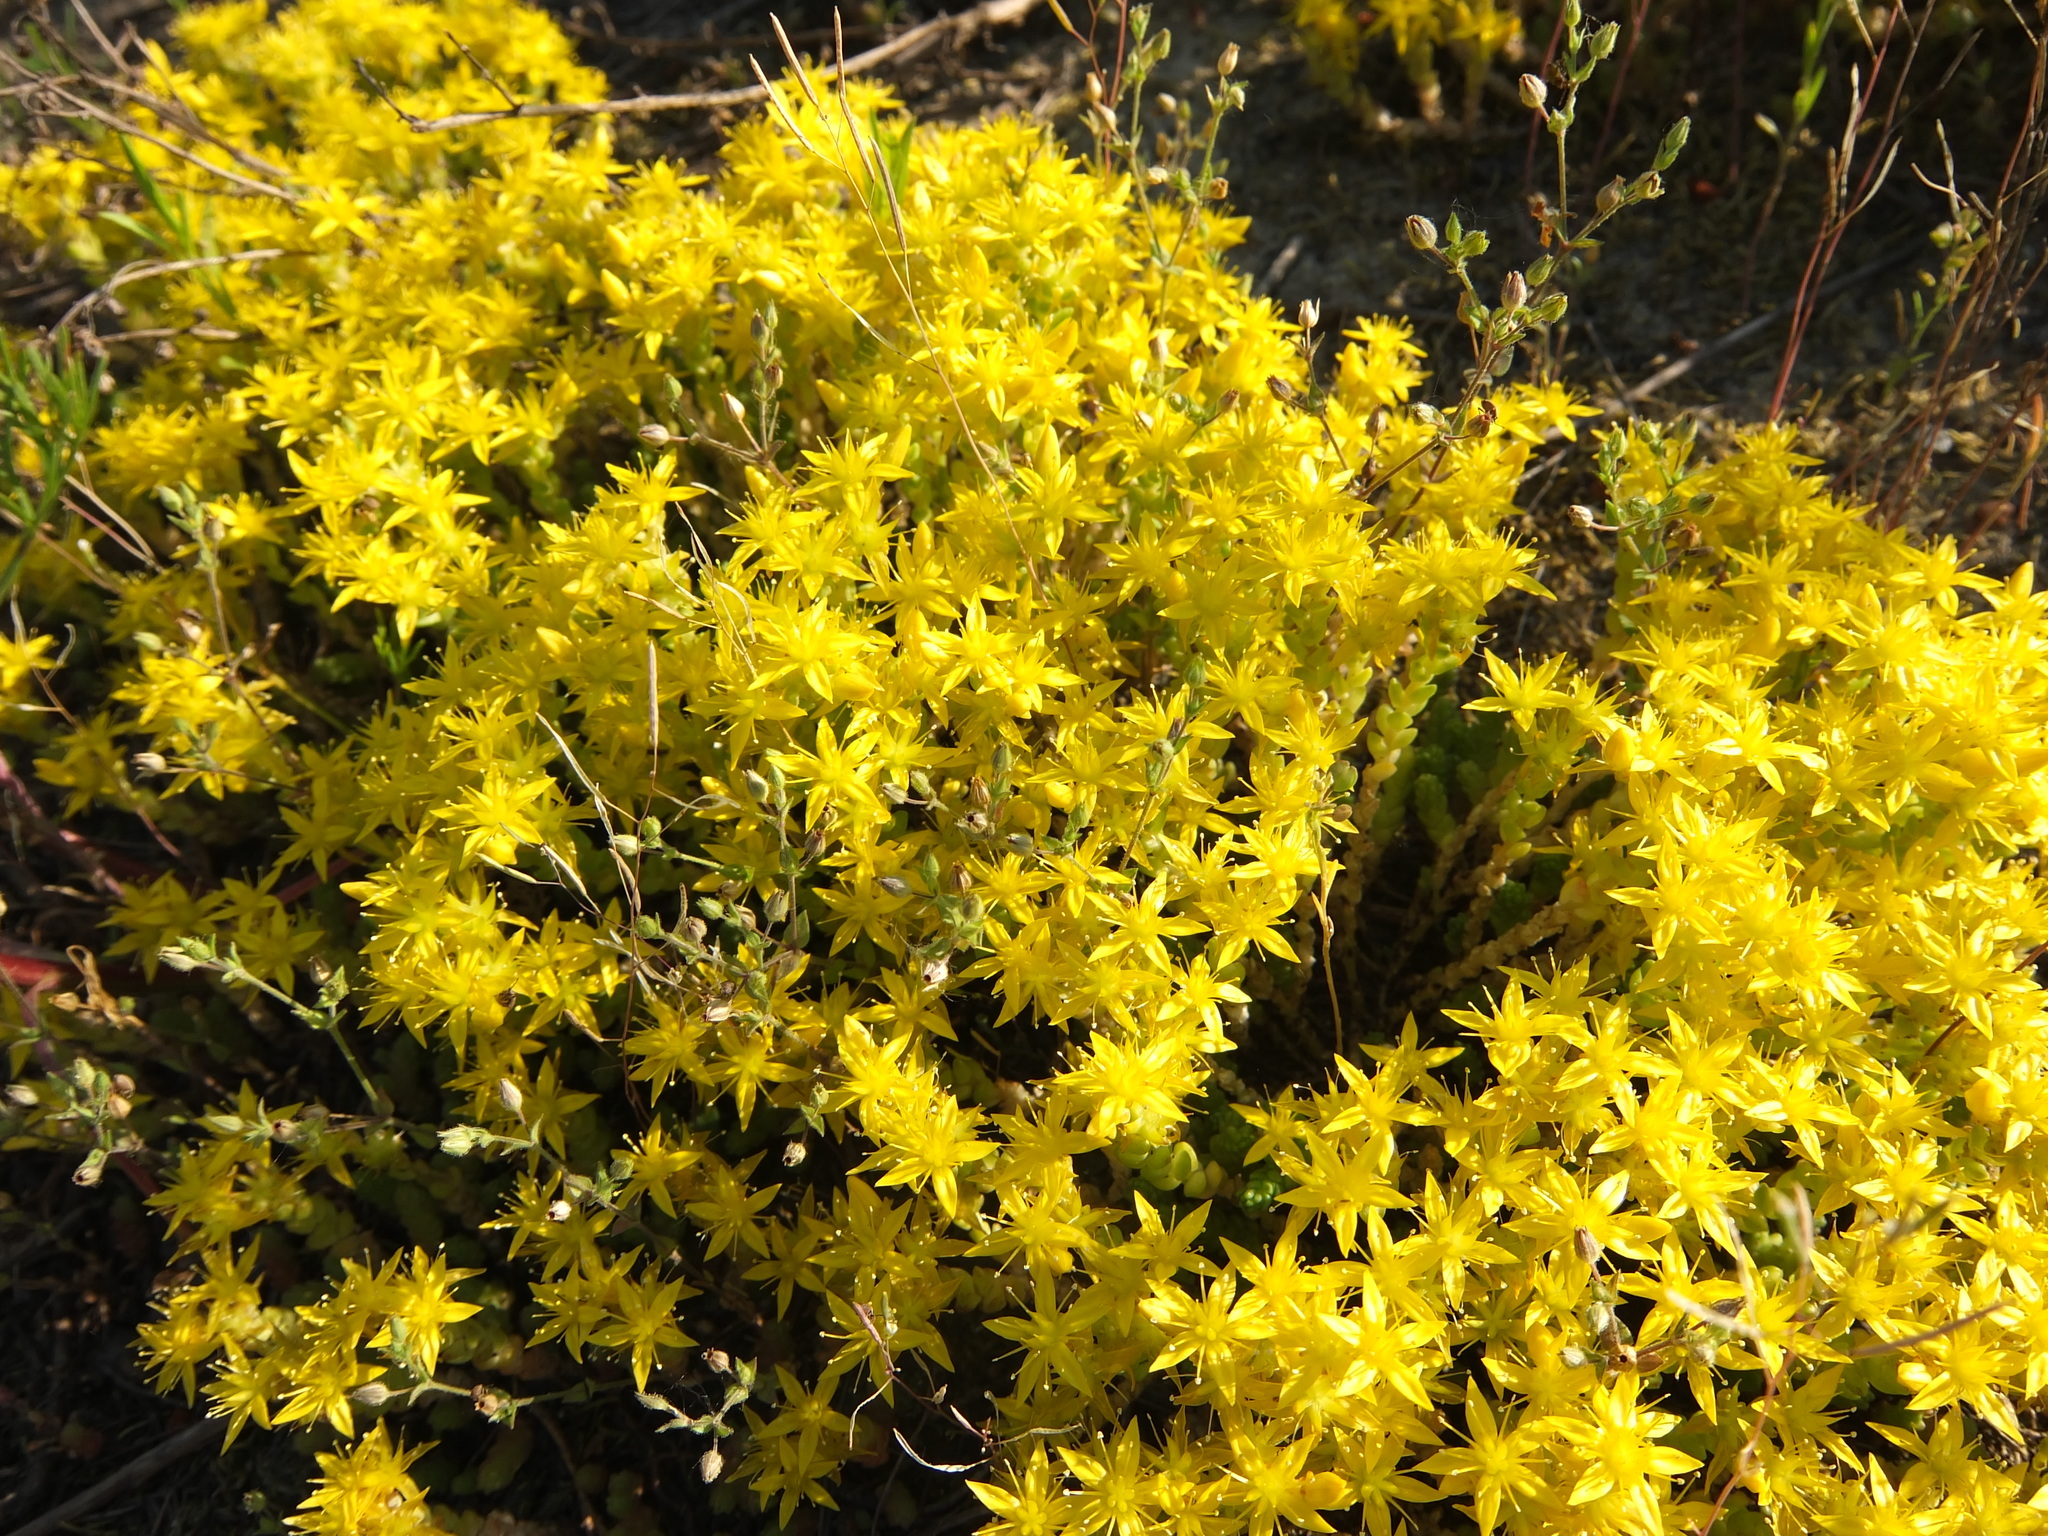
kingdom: Plantae
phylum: Tracheophyta
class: Magnoliopsida
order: Saxifragales
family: Crassulaceae
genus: Sedum
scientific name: Sedum acre
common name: Biting stonecrop
